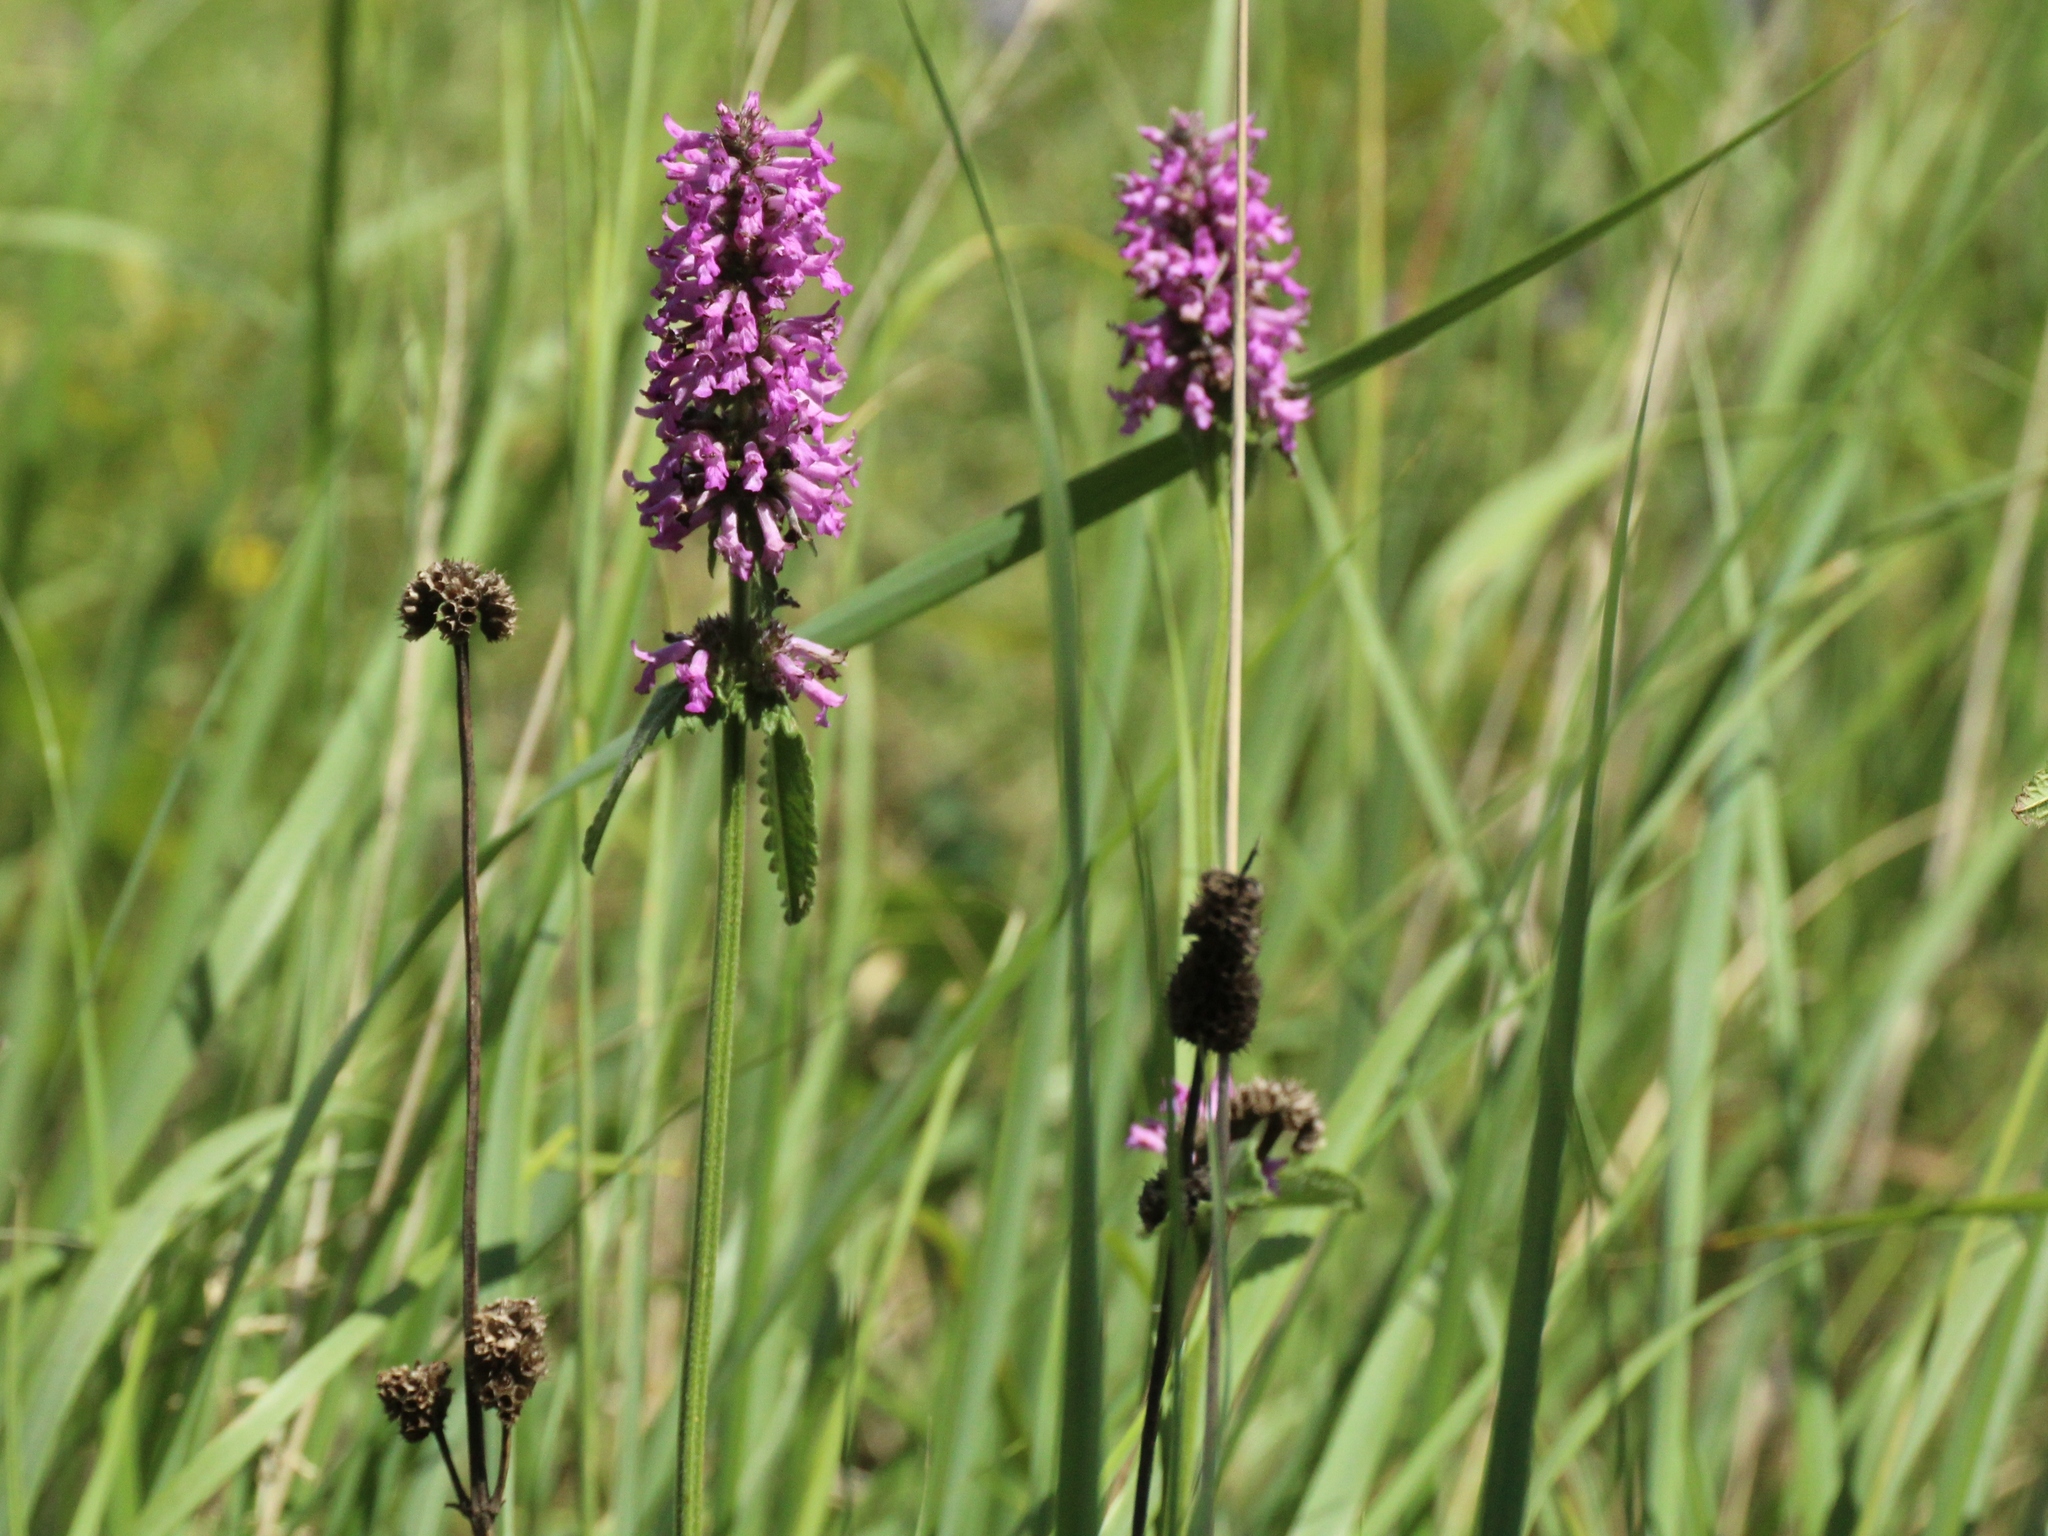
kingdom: Plantae
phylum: Tracheophyta
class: Magnoliopsida
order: Lamiales
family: Lamiaceae
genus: Betonica
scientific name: Betonica officinalis
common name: Bishop's-wort
